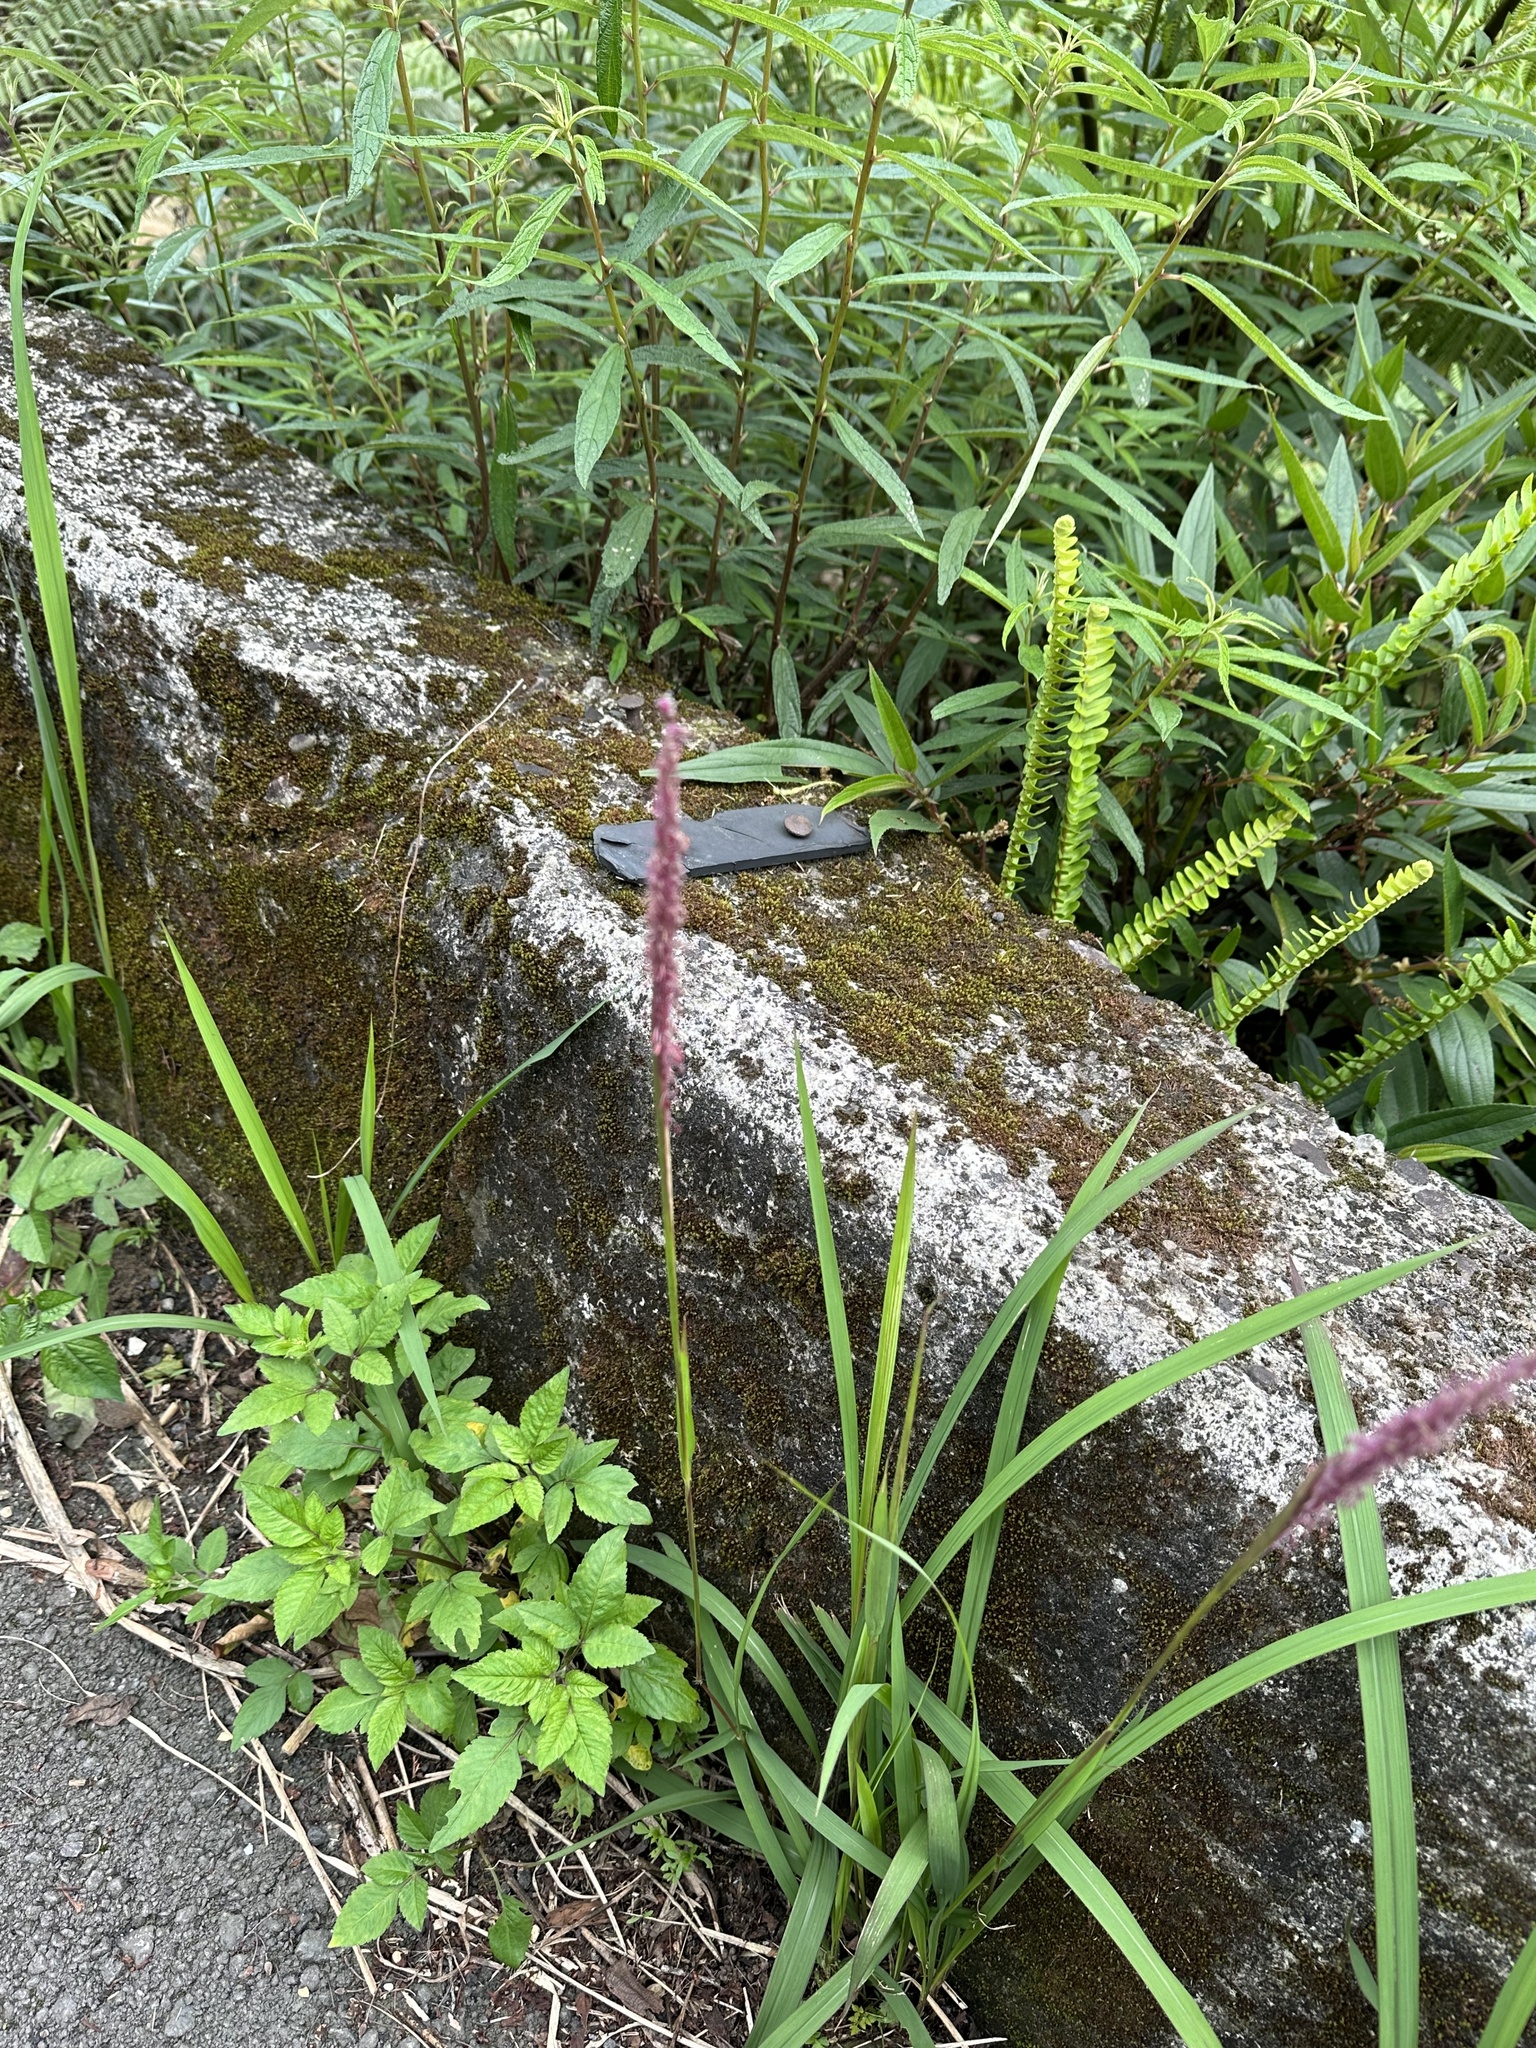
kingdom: Plantae
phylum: Tracheophyta
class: Liliopsida
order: Poales
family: Poaceae
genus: Imperata
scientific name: Imperata cylindrica
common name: Cogongrass
